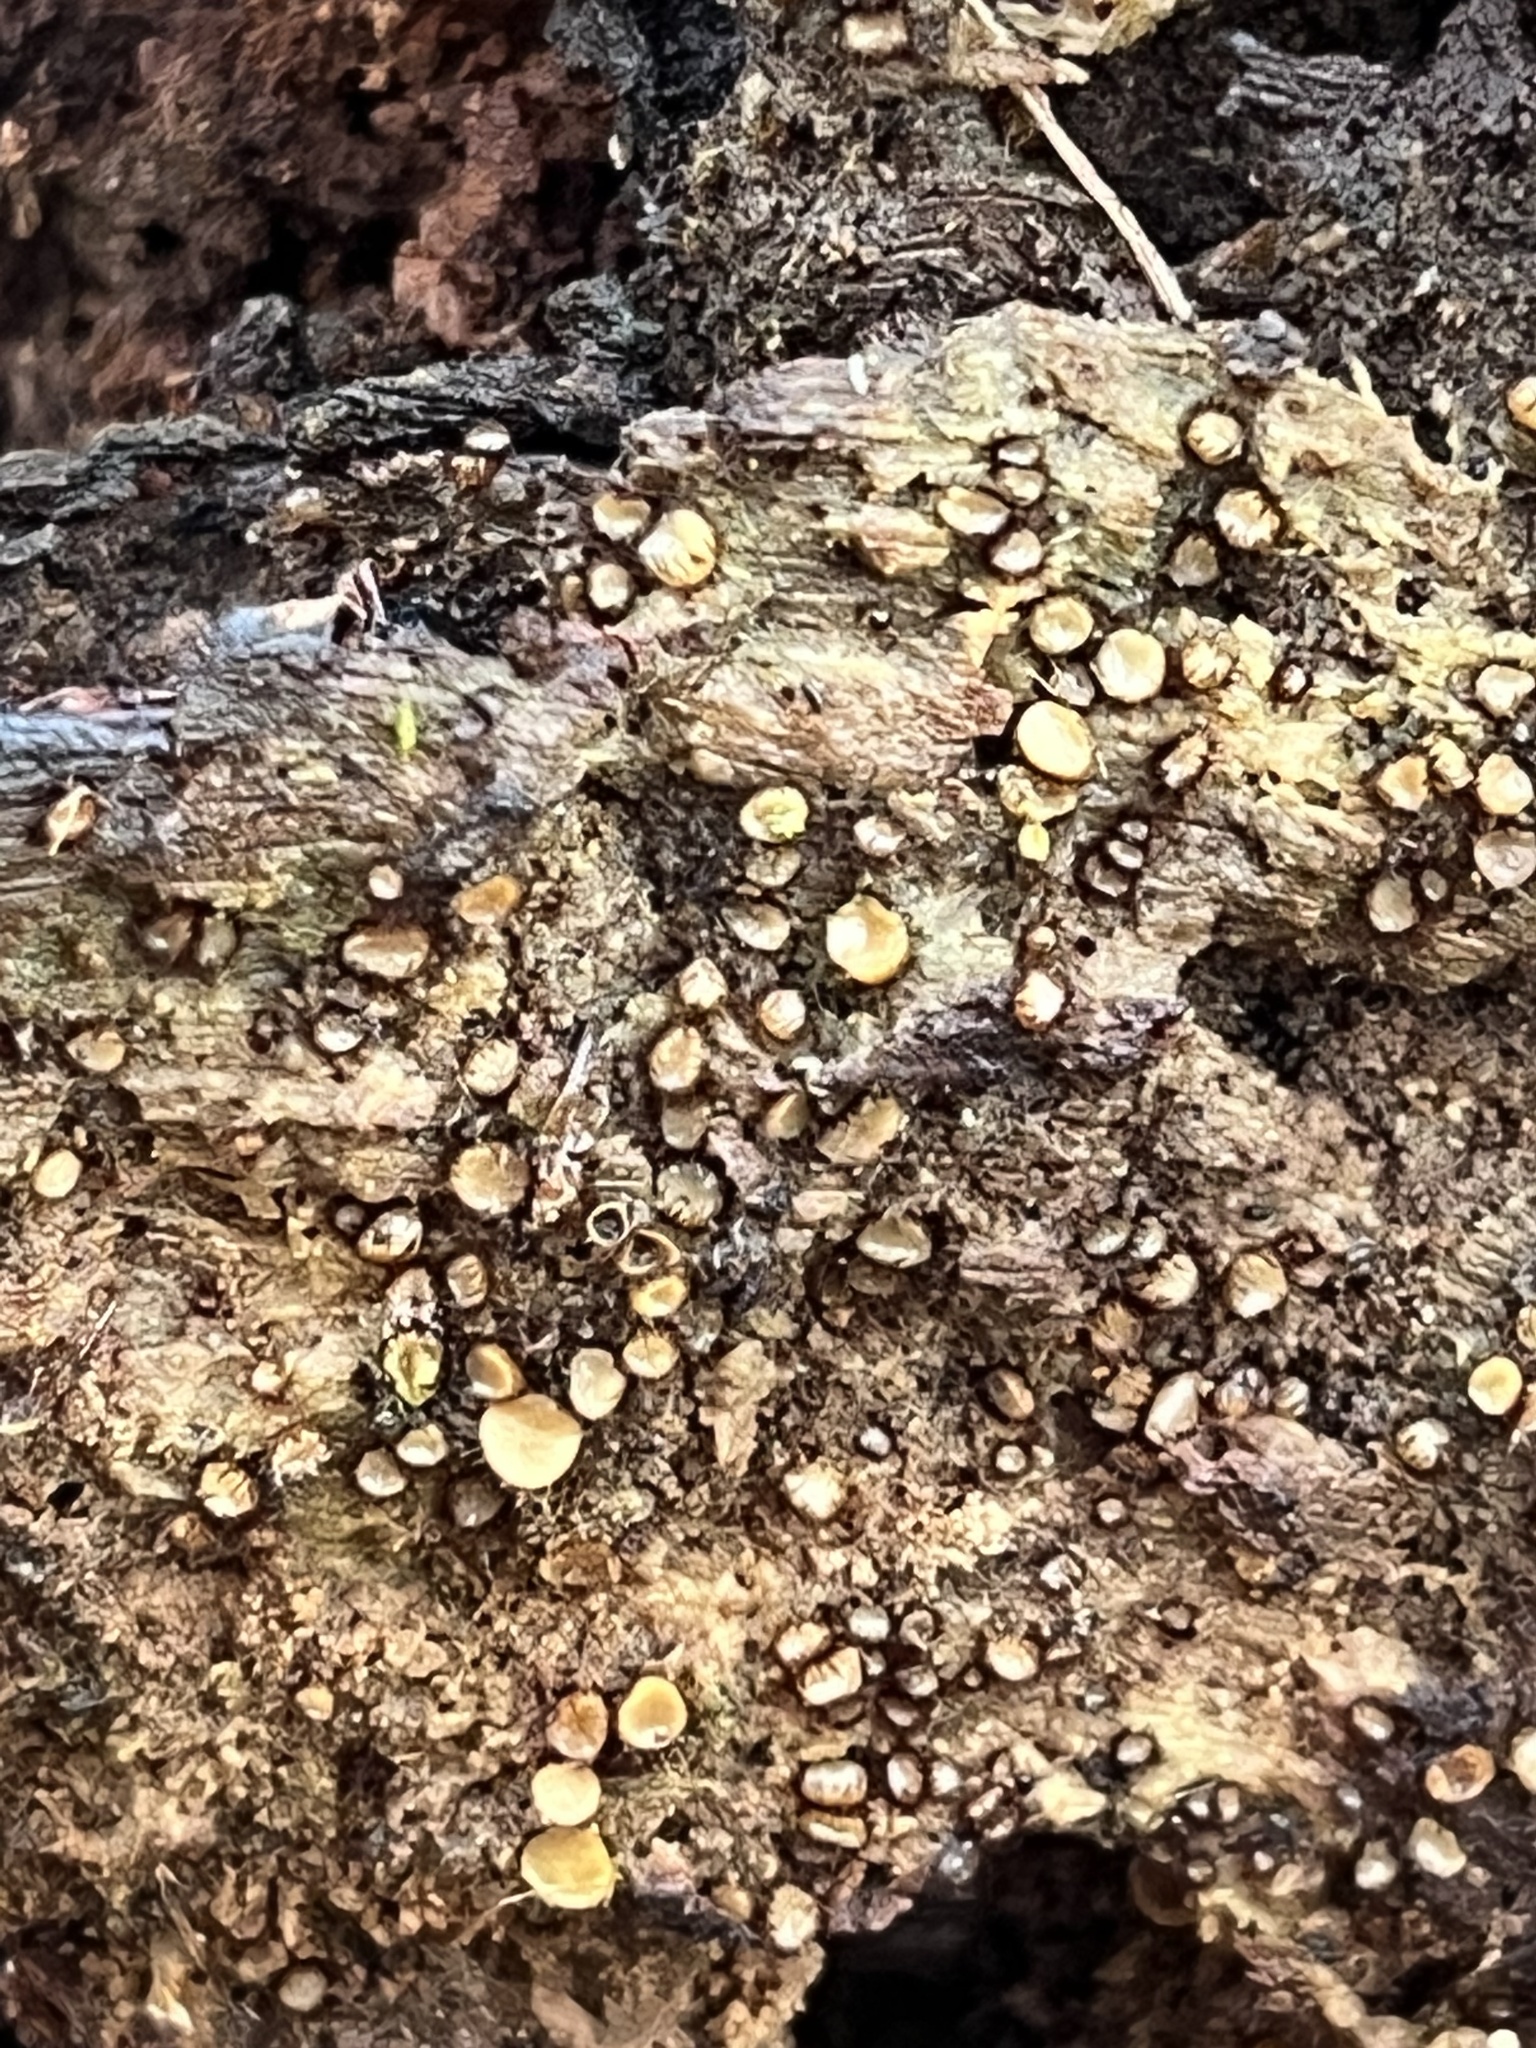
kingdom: Fungi
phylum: Ascomycota
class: Pezizomycetes
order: Pezizales
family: Pyronemataceae
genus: Scutellinia
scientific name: Scutellinia setosa
